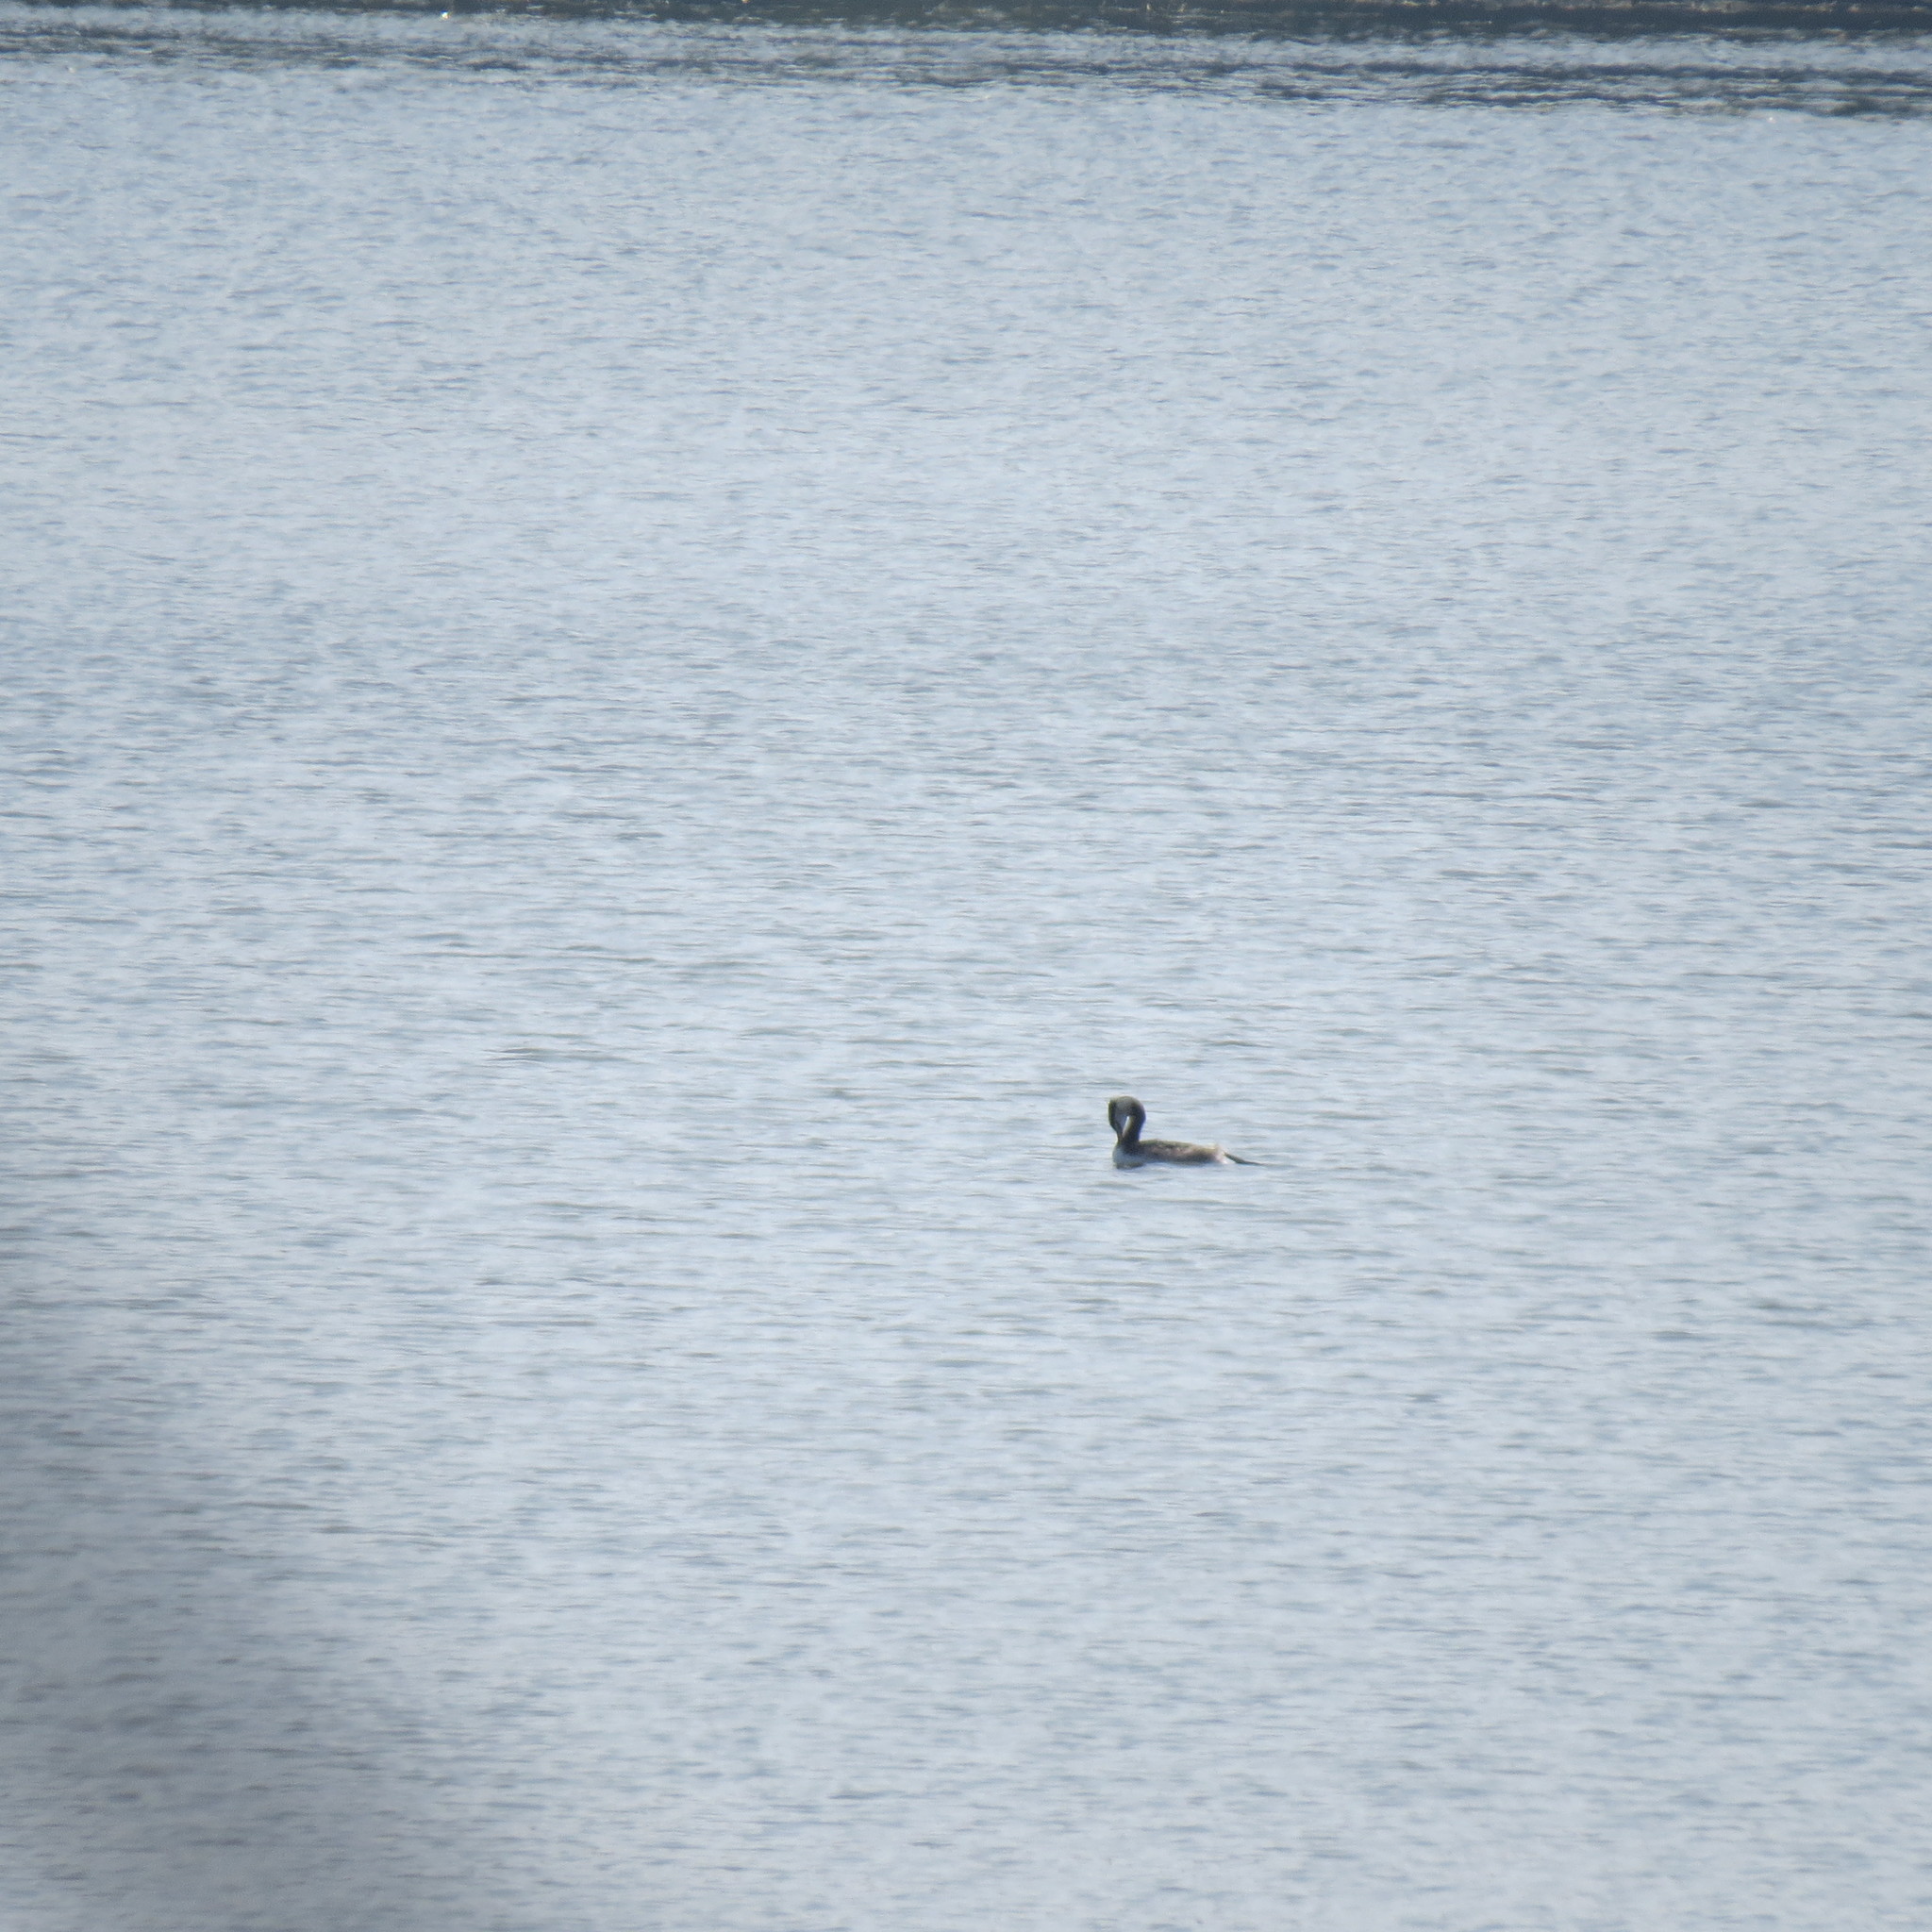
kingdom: Animalia
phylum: Chordata
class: Aves
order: Podicipediformes
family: Podicipedidae
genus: Podiceps
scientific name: Podiceps cristatus
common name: Great crested grebe
